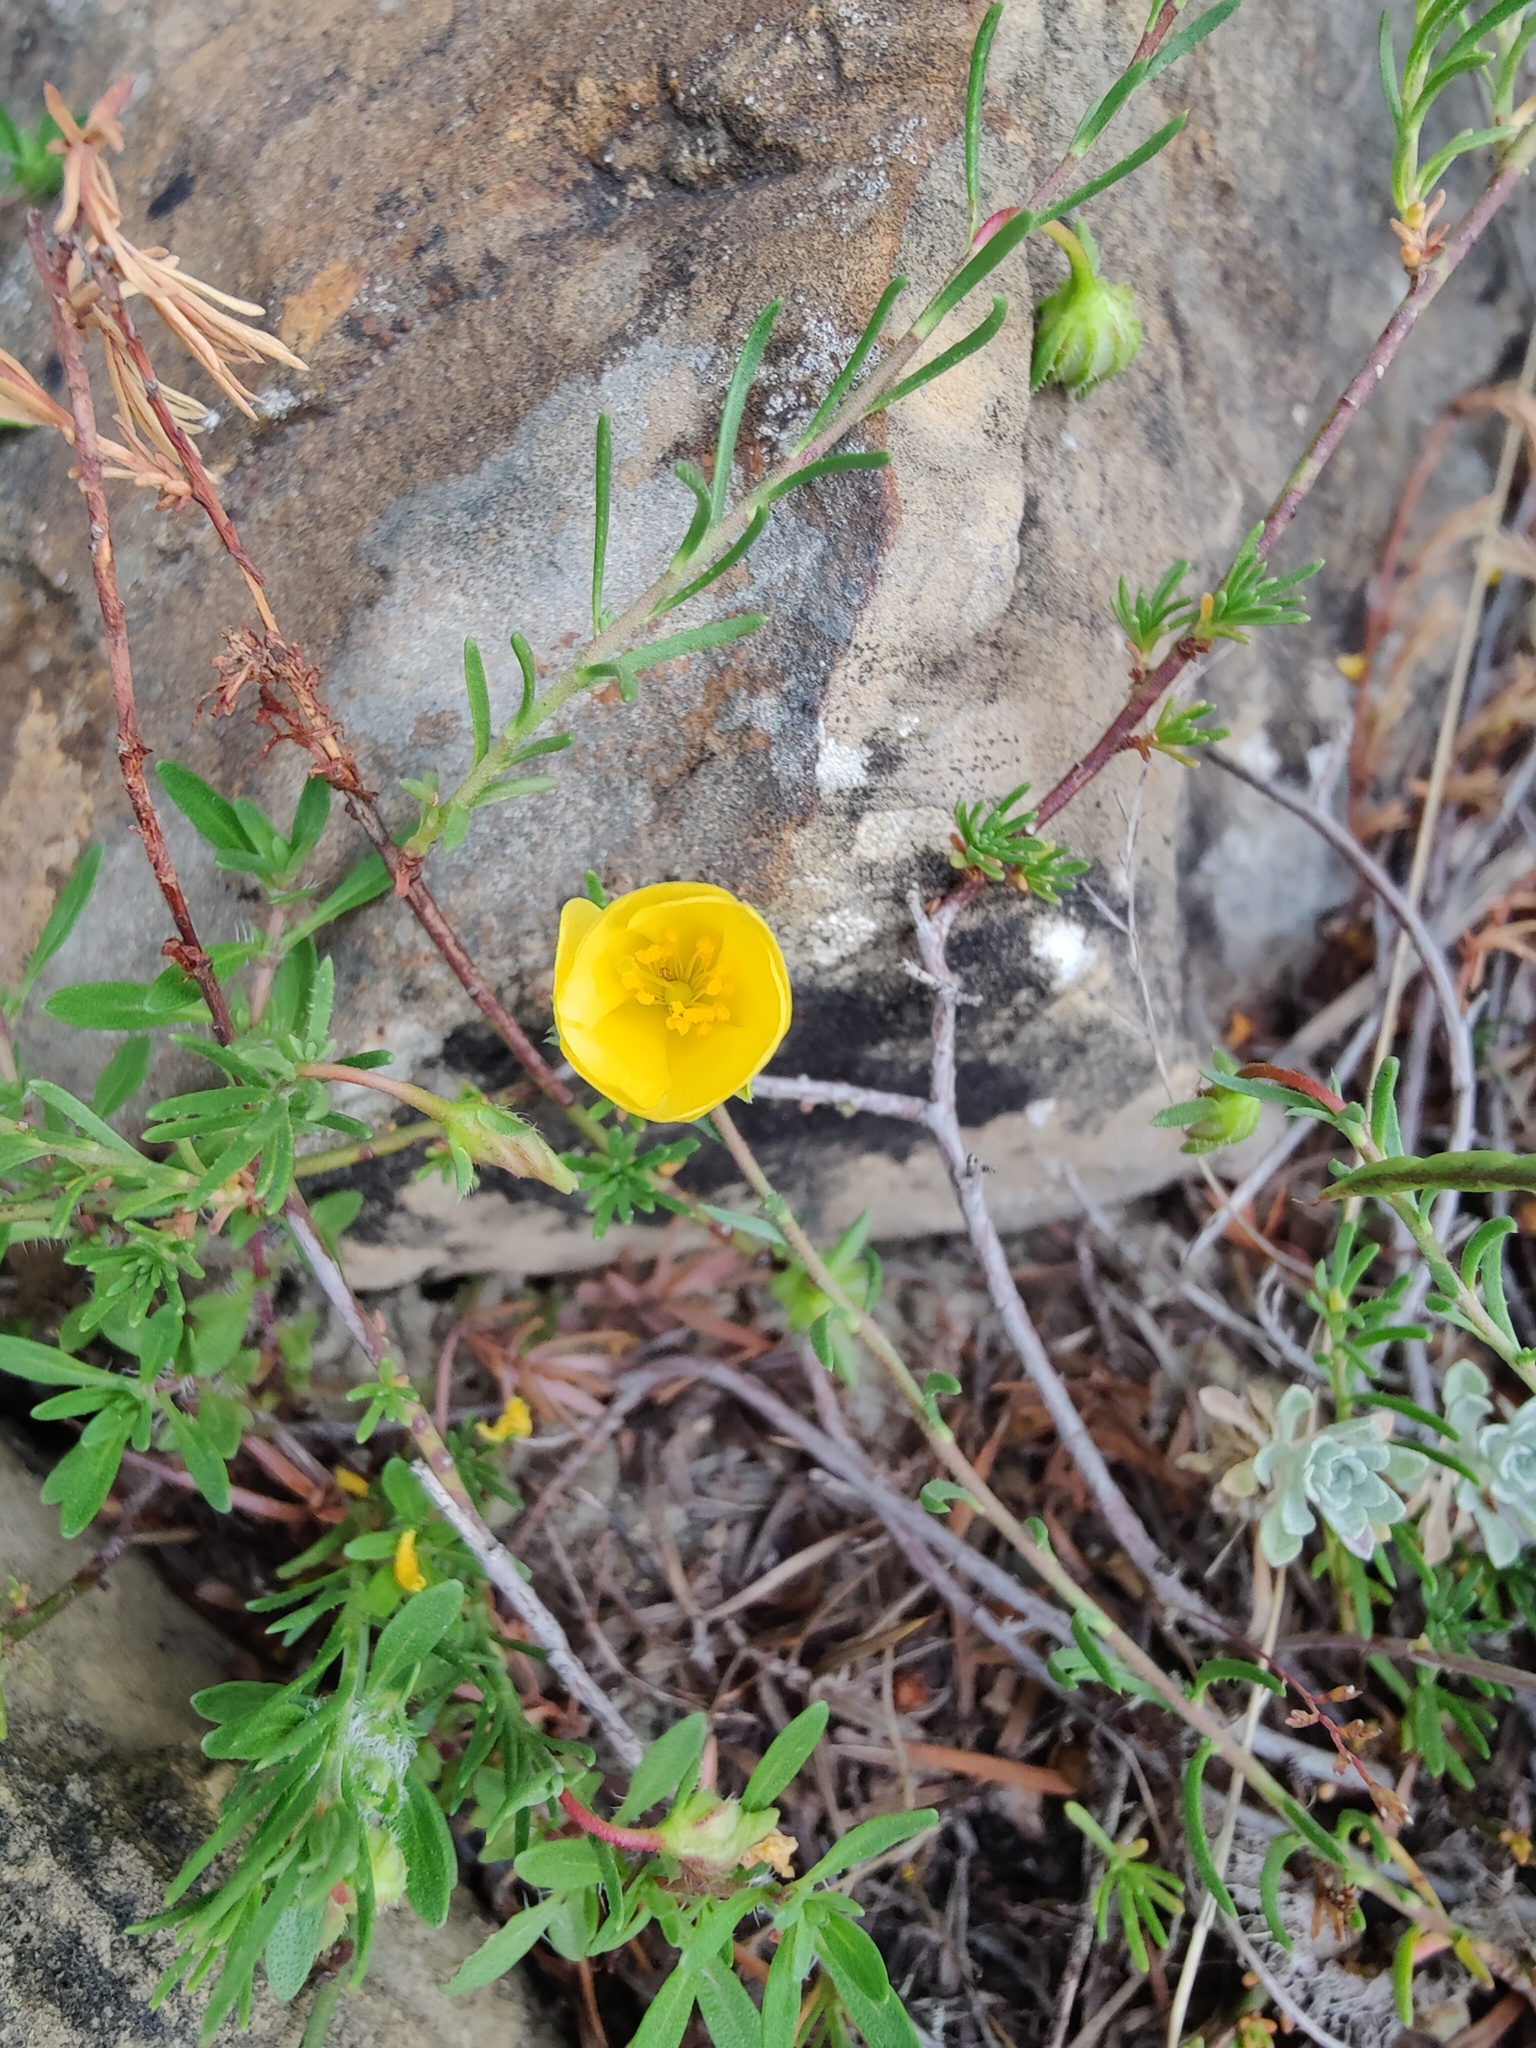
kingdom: Plantae
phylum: Tracheophyta
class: Magnoliopsida
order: Malvales
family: Cistaceae
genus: Fumana
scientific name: Fumana procumbens
